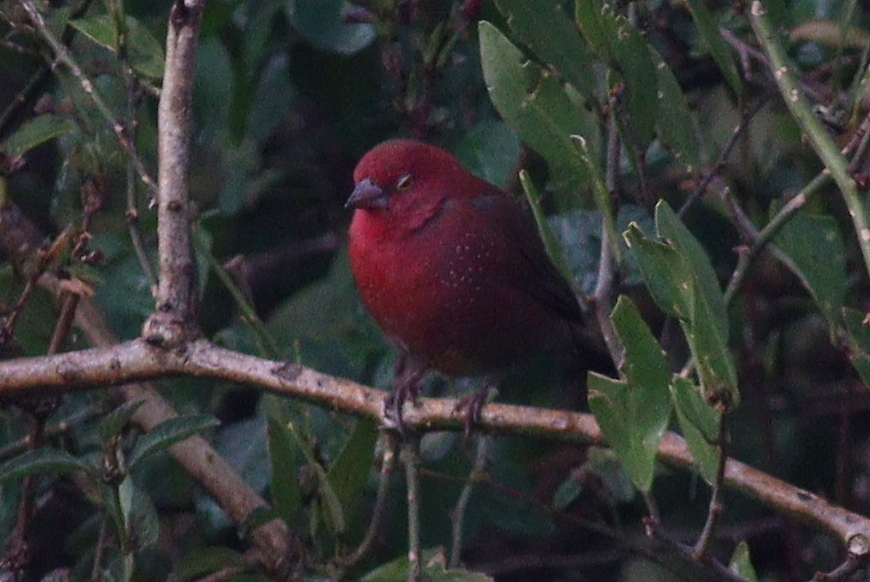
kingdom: Animalia
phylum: Chordata
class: Aves
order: Passeriformes
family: Estrildidae
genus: Lagonosticta
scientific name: Lagonosticta senegala
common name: Red-billed firefinch
